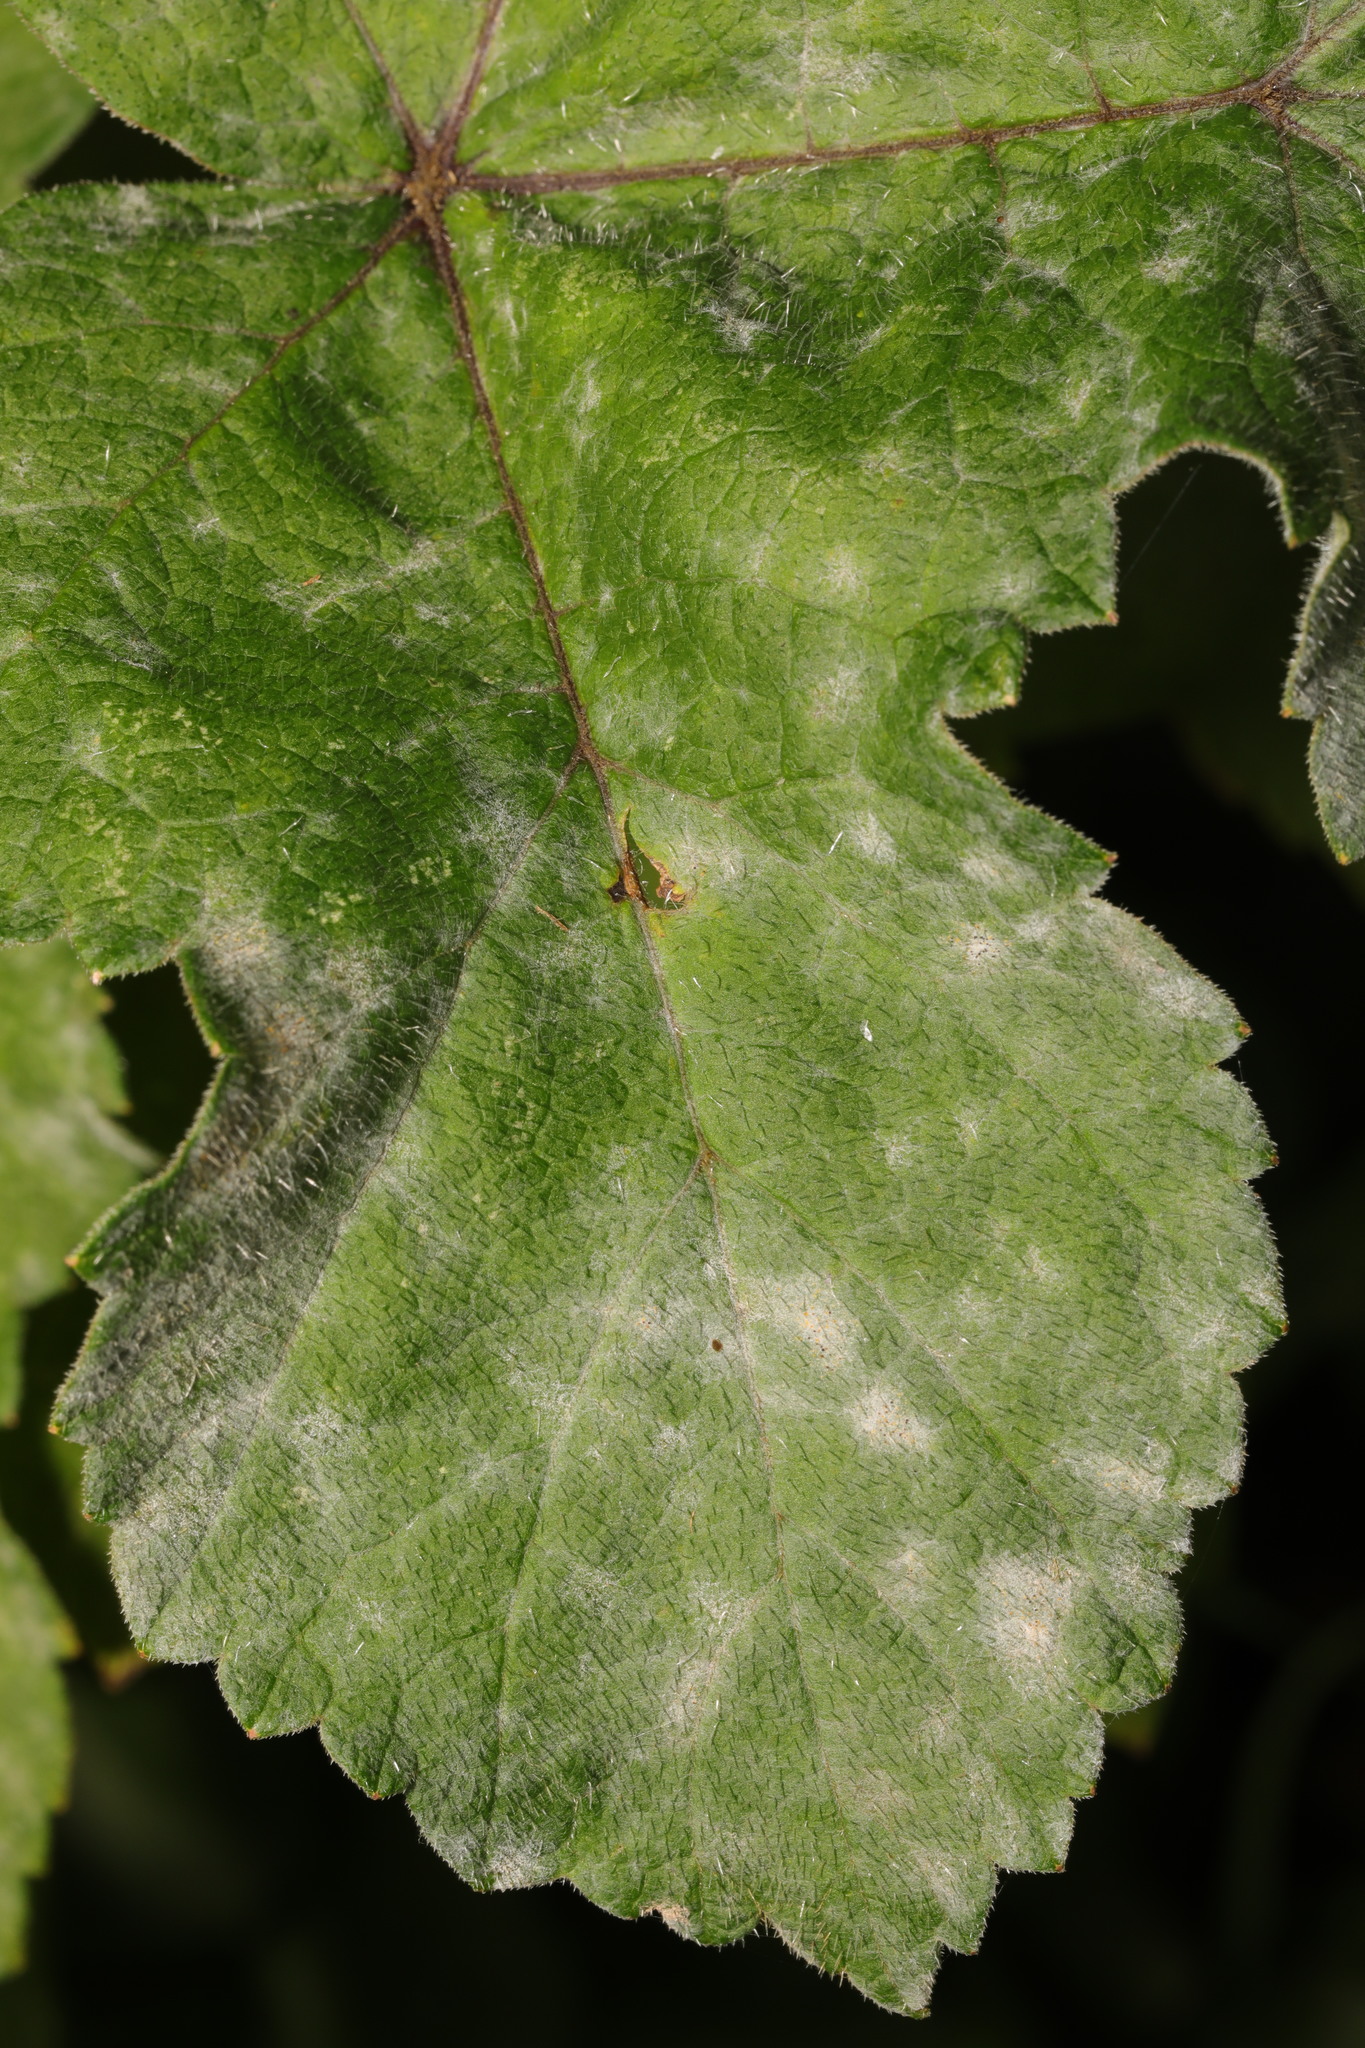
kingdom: Fungi
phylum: Ascomycota
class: Leotiomycetes
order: Helotiales
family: Erysiphaceae
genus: Erysiphe
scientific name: Erysiphe heraclei
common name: Umbellifer mildew
